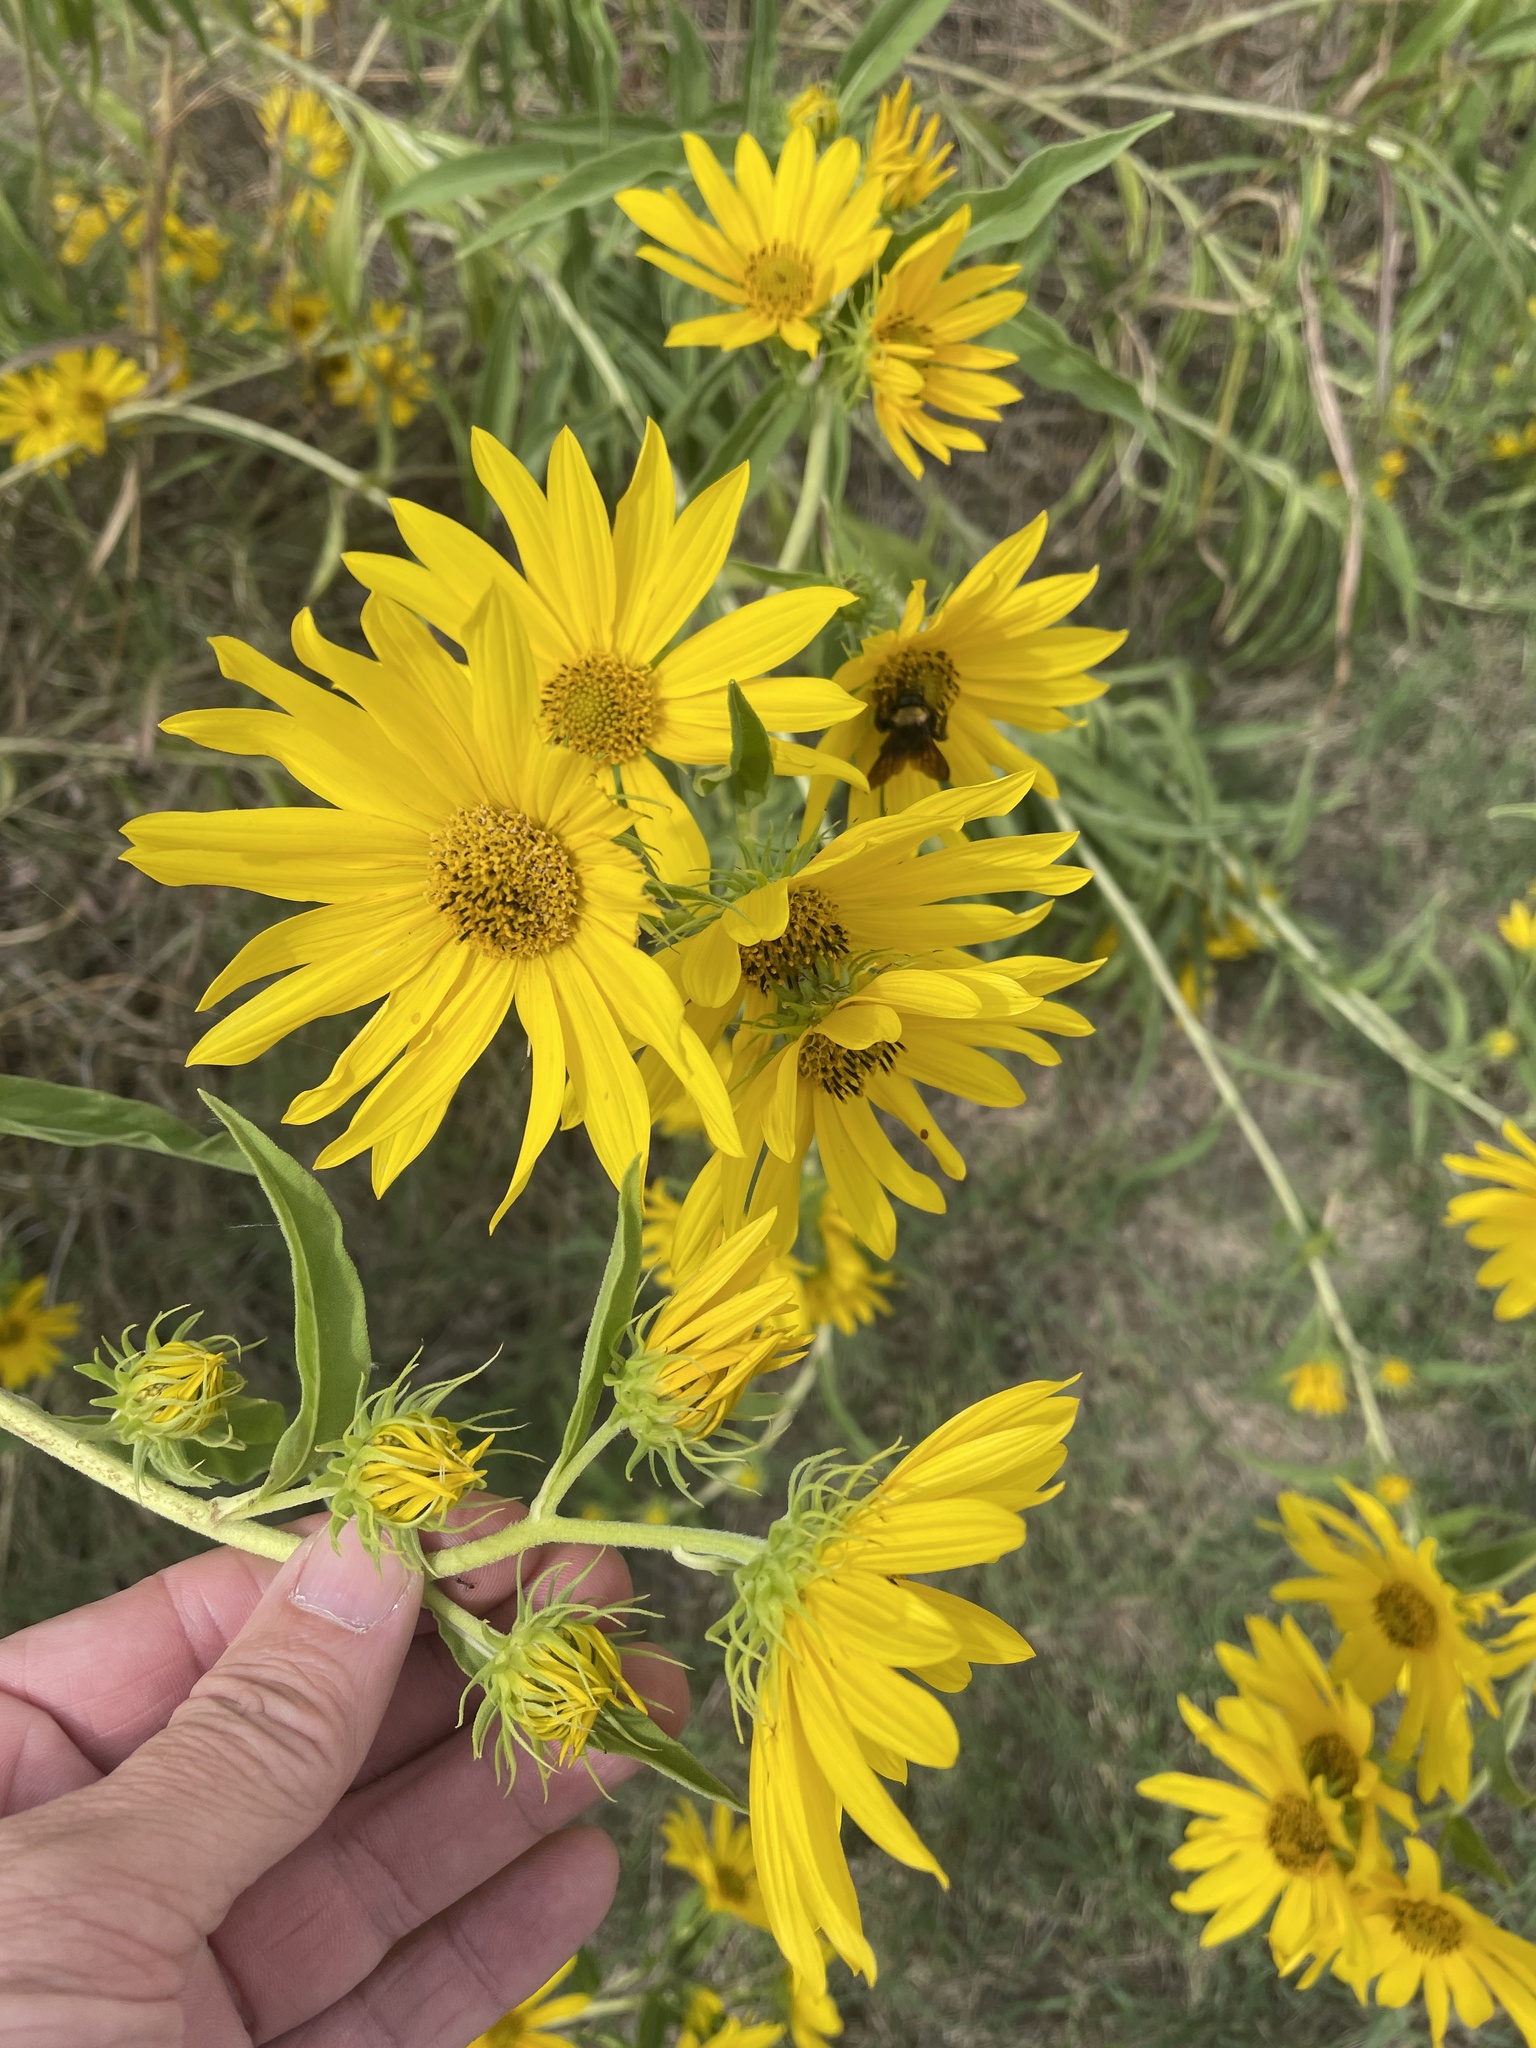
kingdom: Plantae
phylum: Tracheophyta
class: Magnoliopsida
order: Asterales
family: Asteraceae
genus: Helianthus
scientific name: Helianthus maximiliani
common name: Maximilian's sunflower
